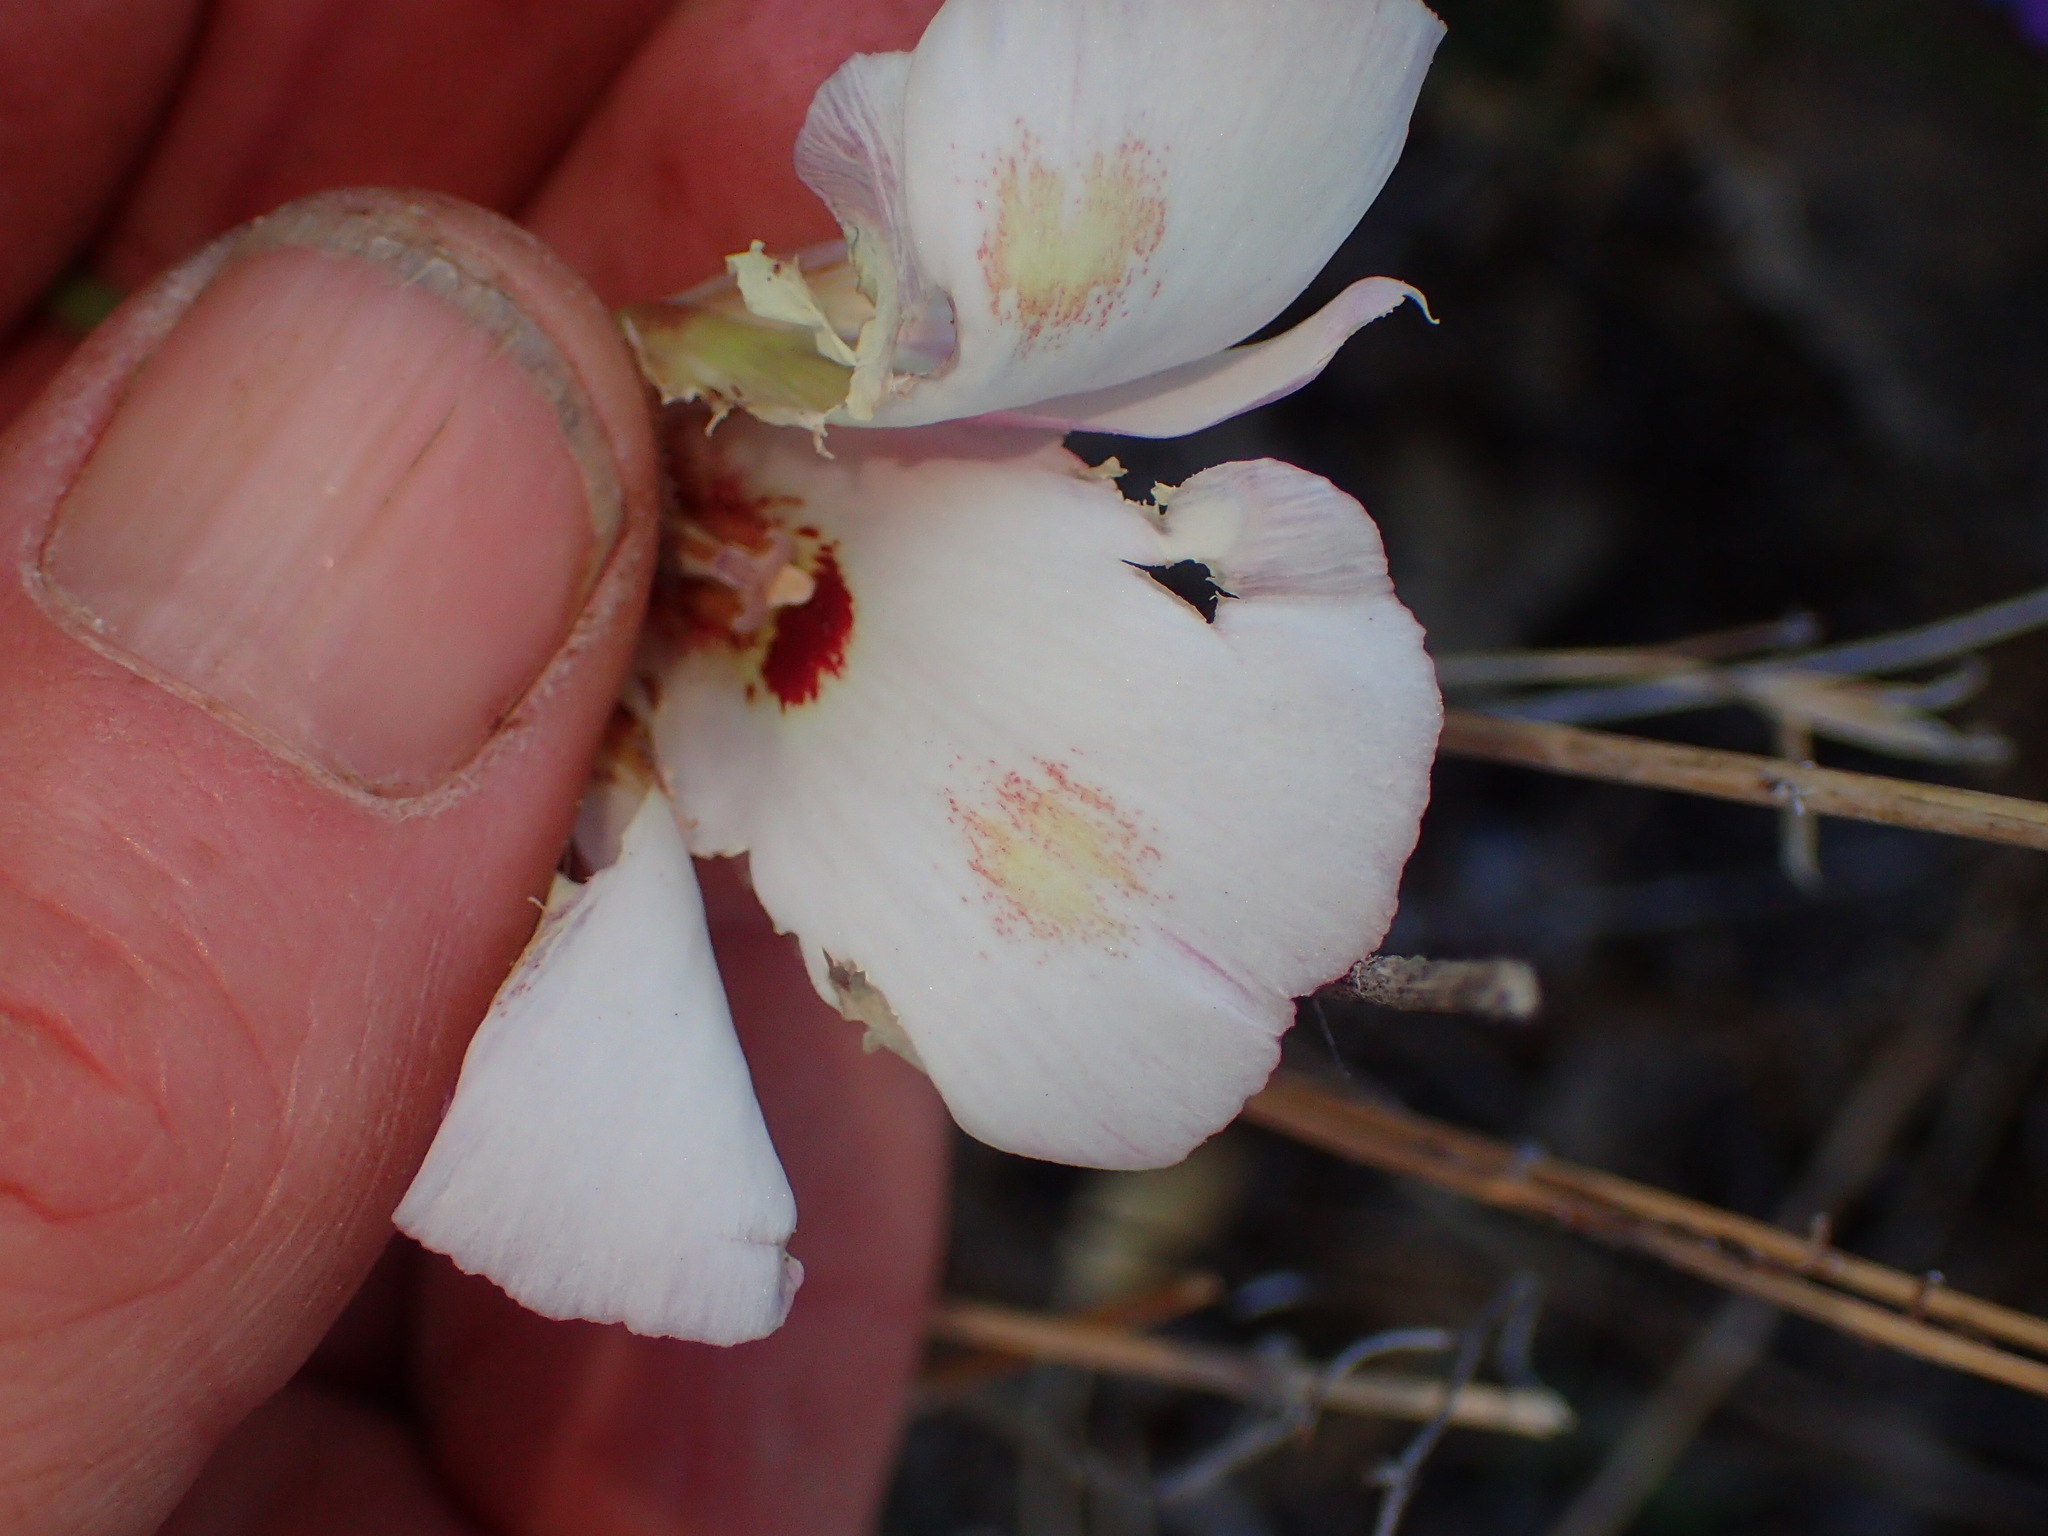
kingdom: Plantae
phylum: Tracheophyta
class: Liliopsida
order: Liliales
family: Liliaceae
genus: Calochortus
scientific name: Calochortus venustus
